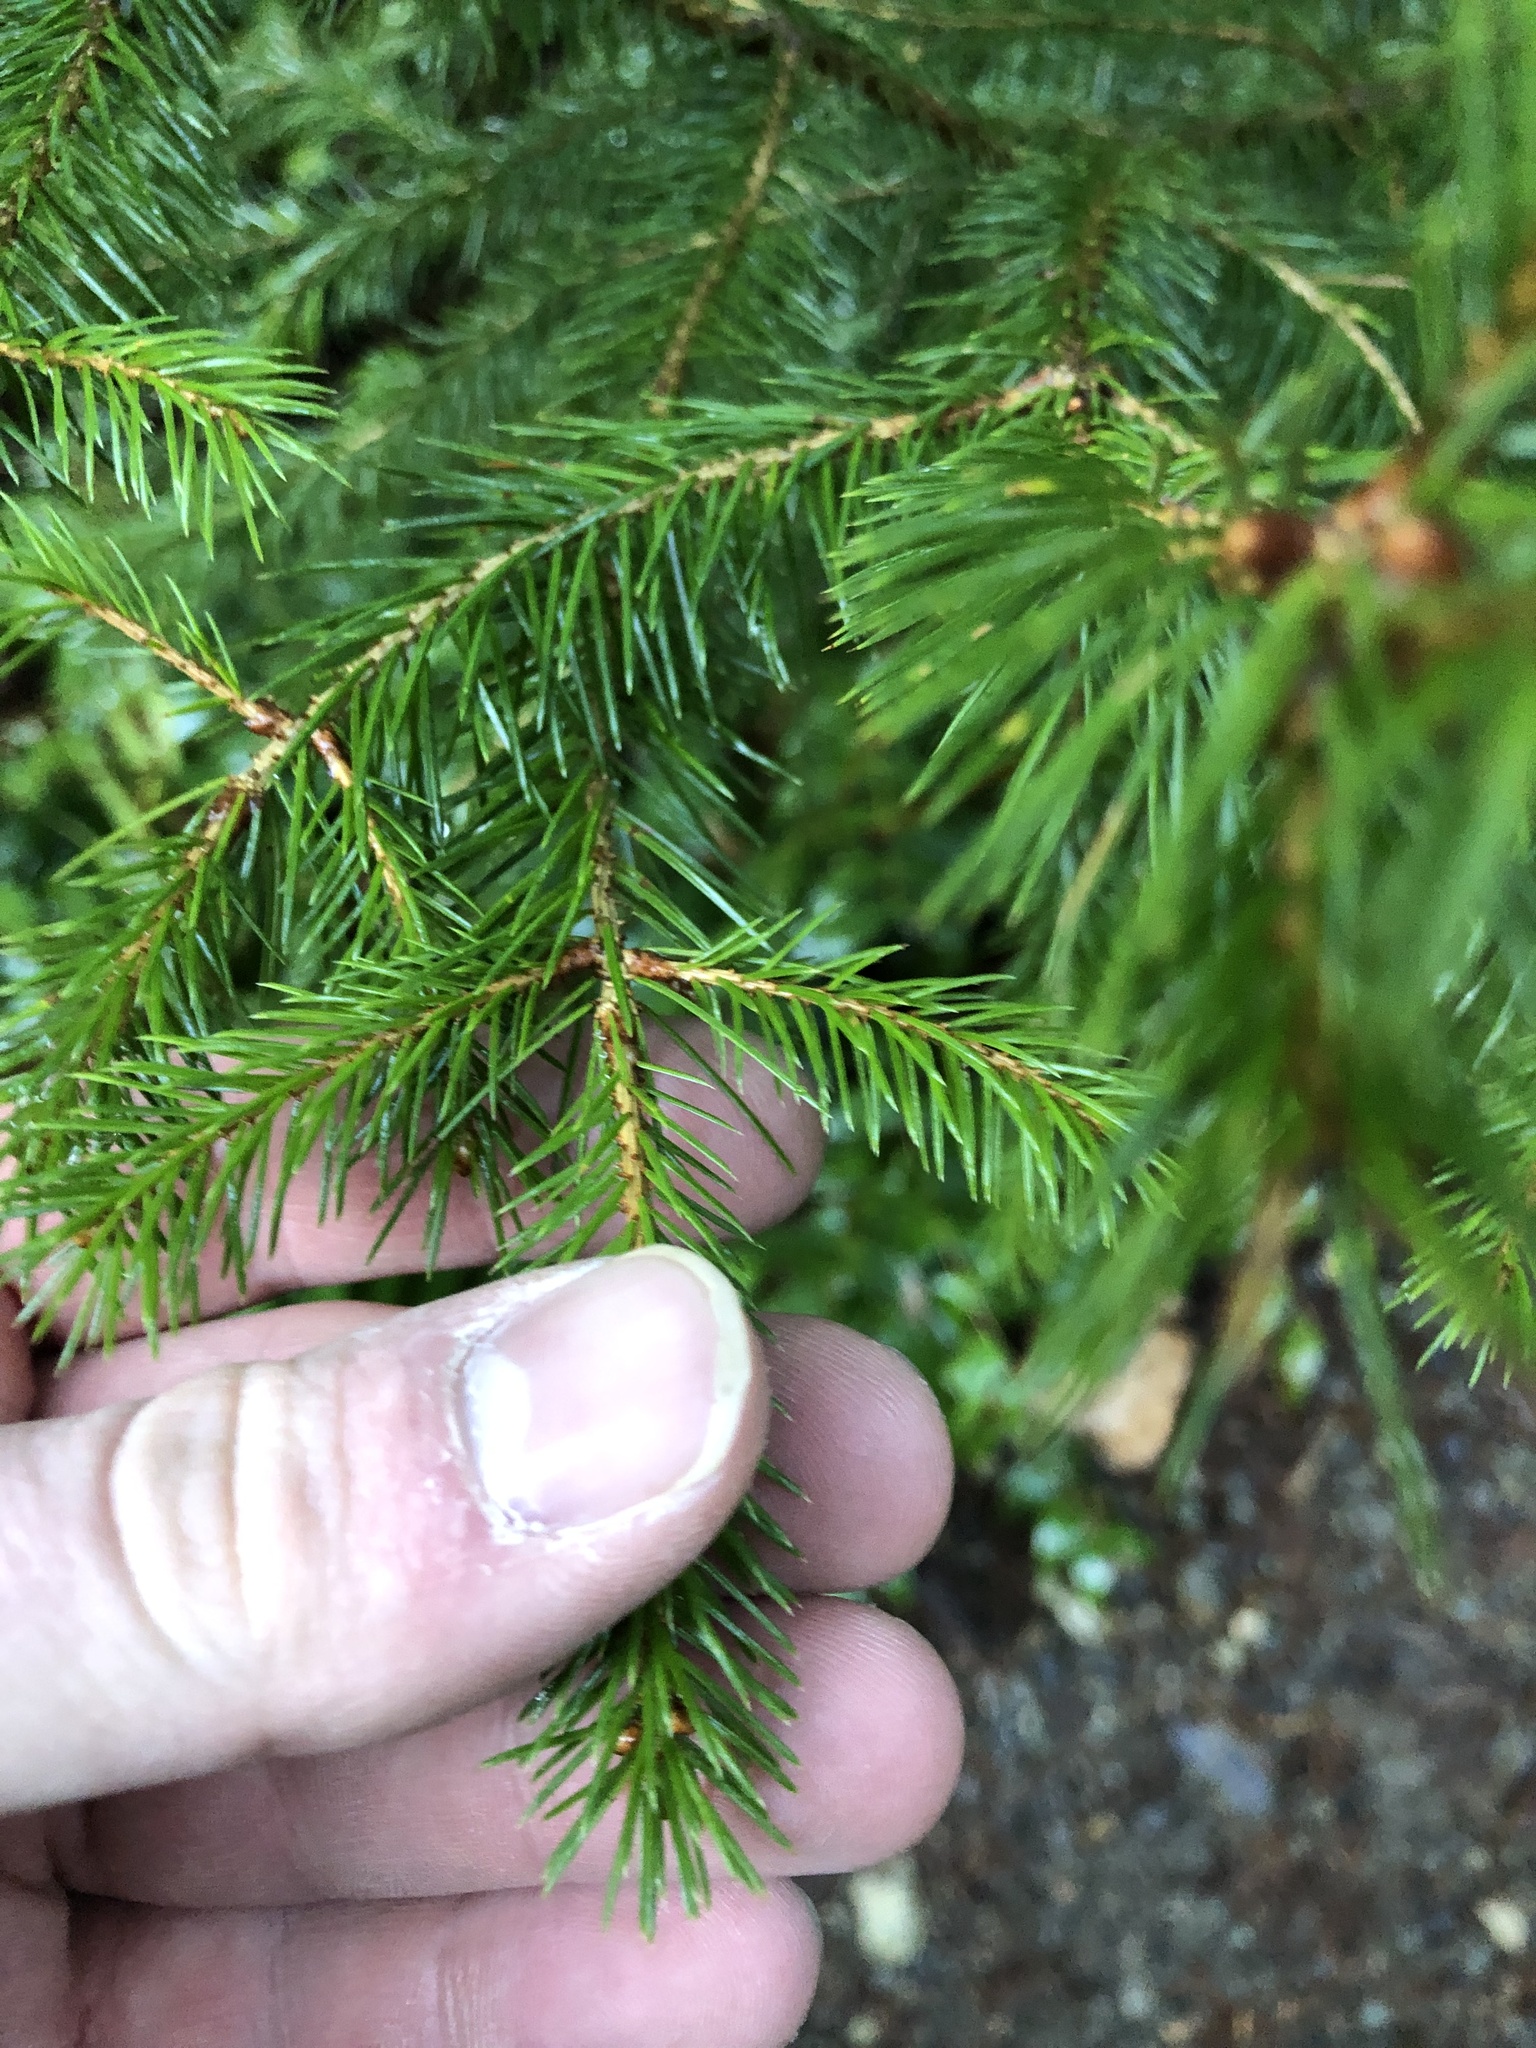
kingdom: Plantae
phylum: Tracheophyta
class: Pinopsida
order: Pinales
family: Pinaceae
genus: Picea
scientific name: Picea sitchensis
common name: Sitka spruce
